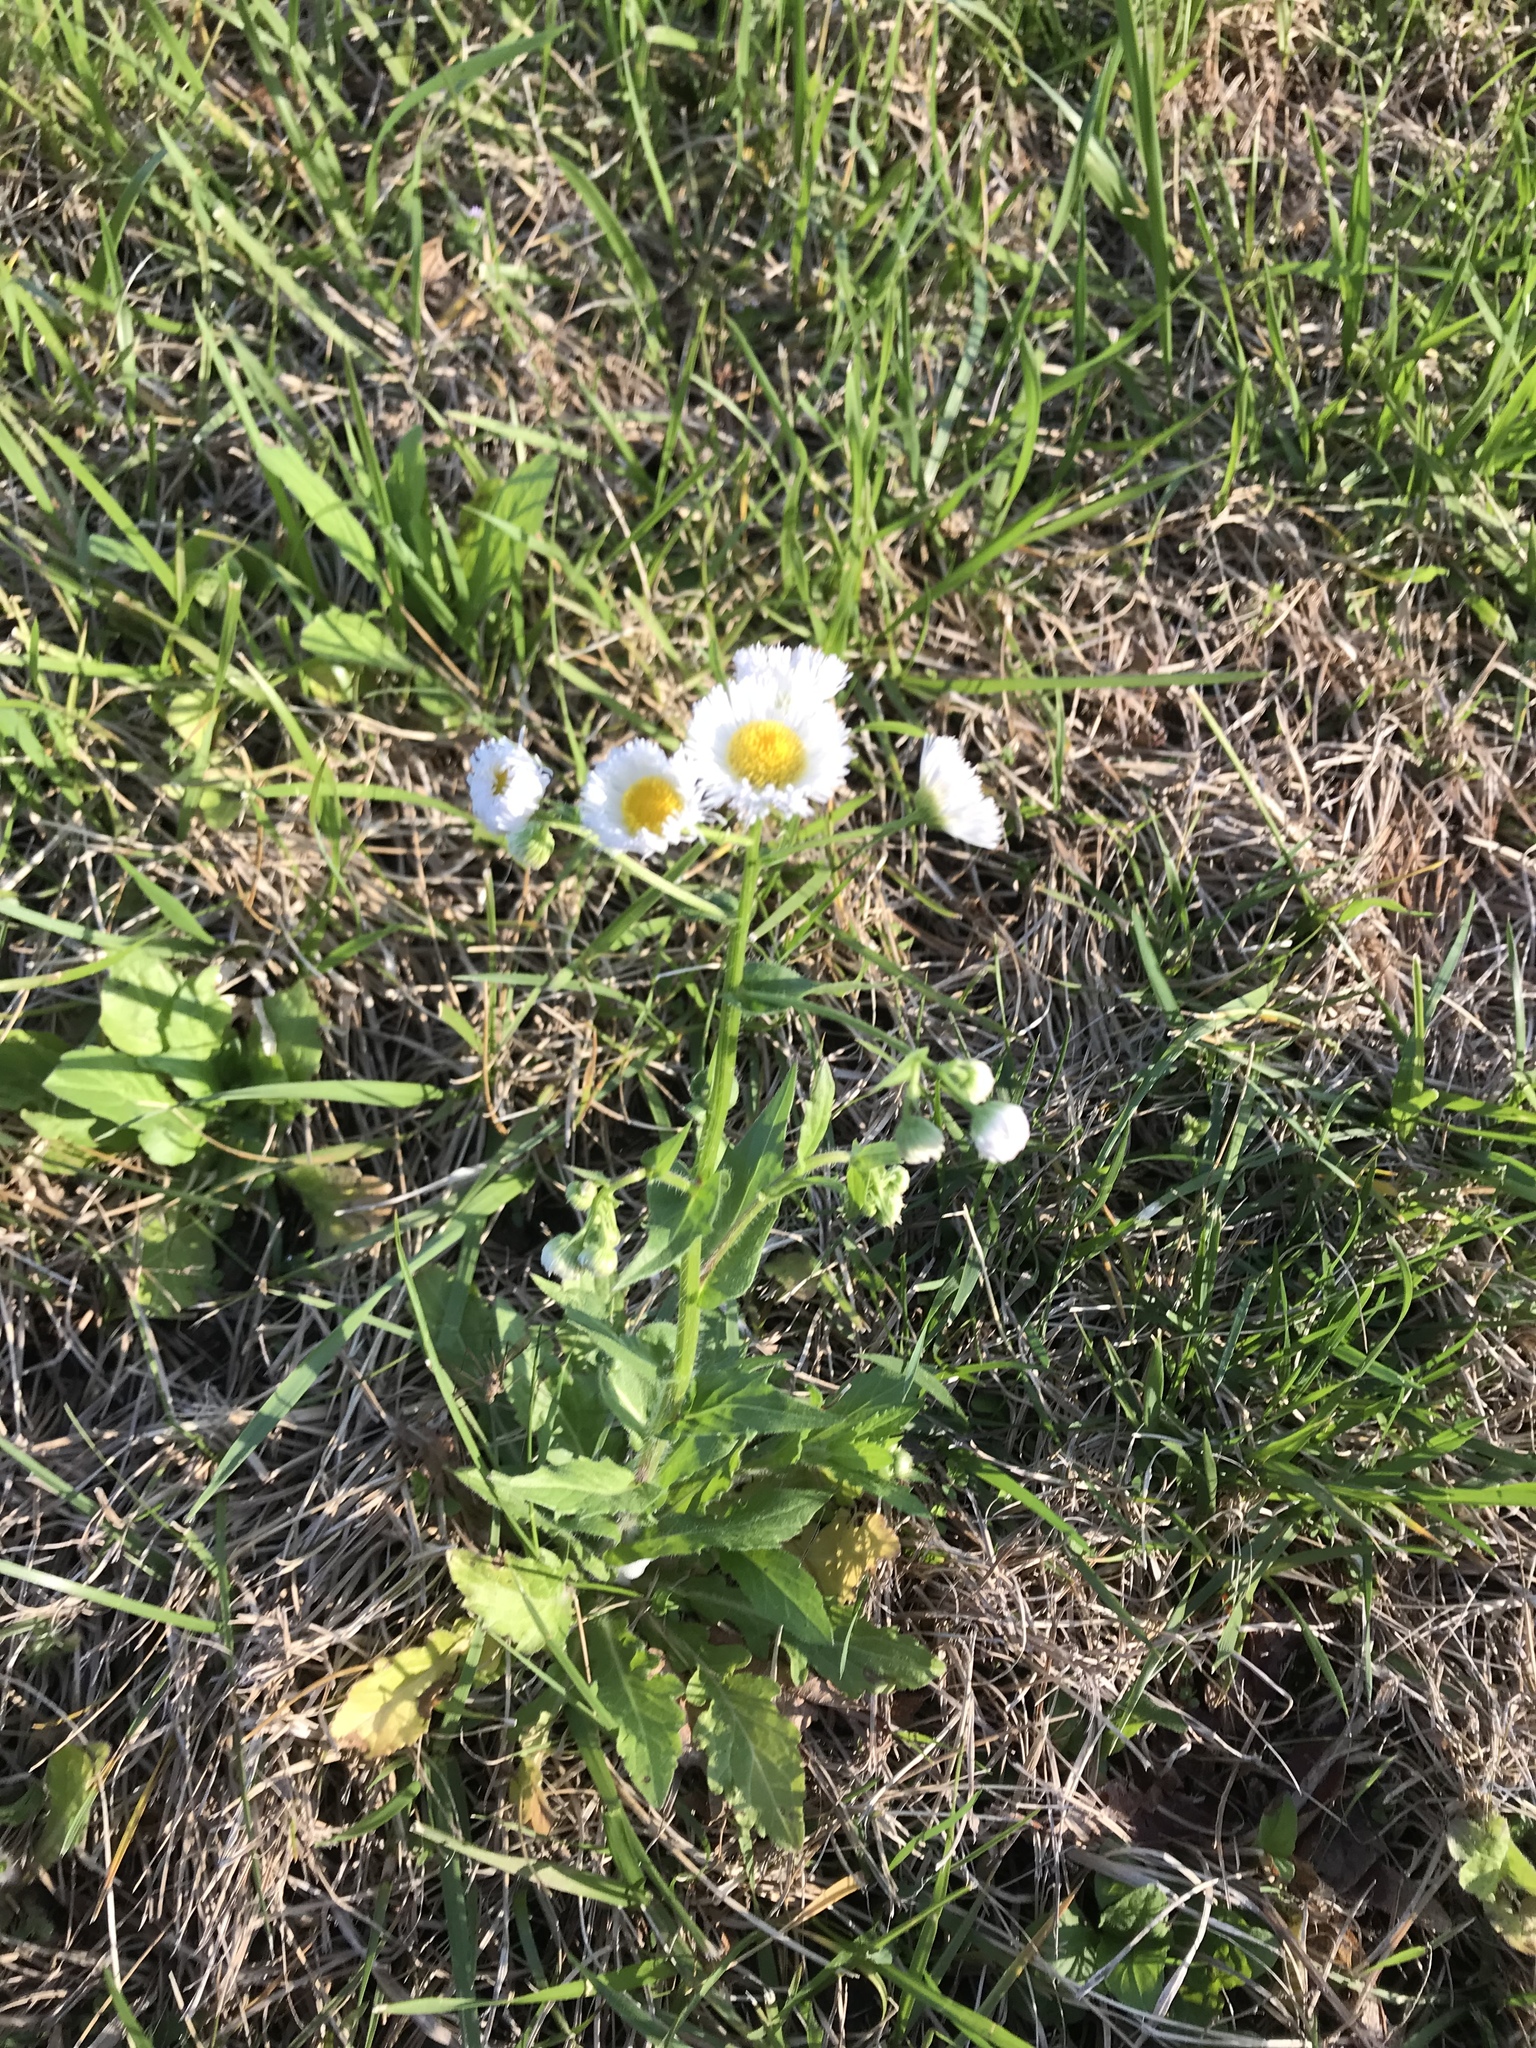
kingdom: Plantae
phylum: Tracheophyta
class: Magnoliopsida
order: Asterales
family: Asteraceae
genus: Erigeron
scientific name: Erigeron philadelphicus
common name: Robin's-plantain
